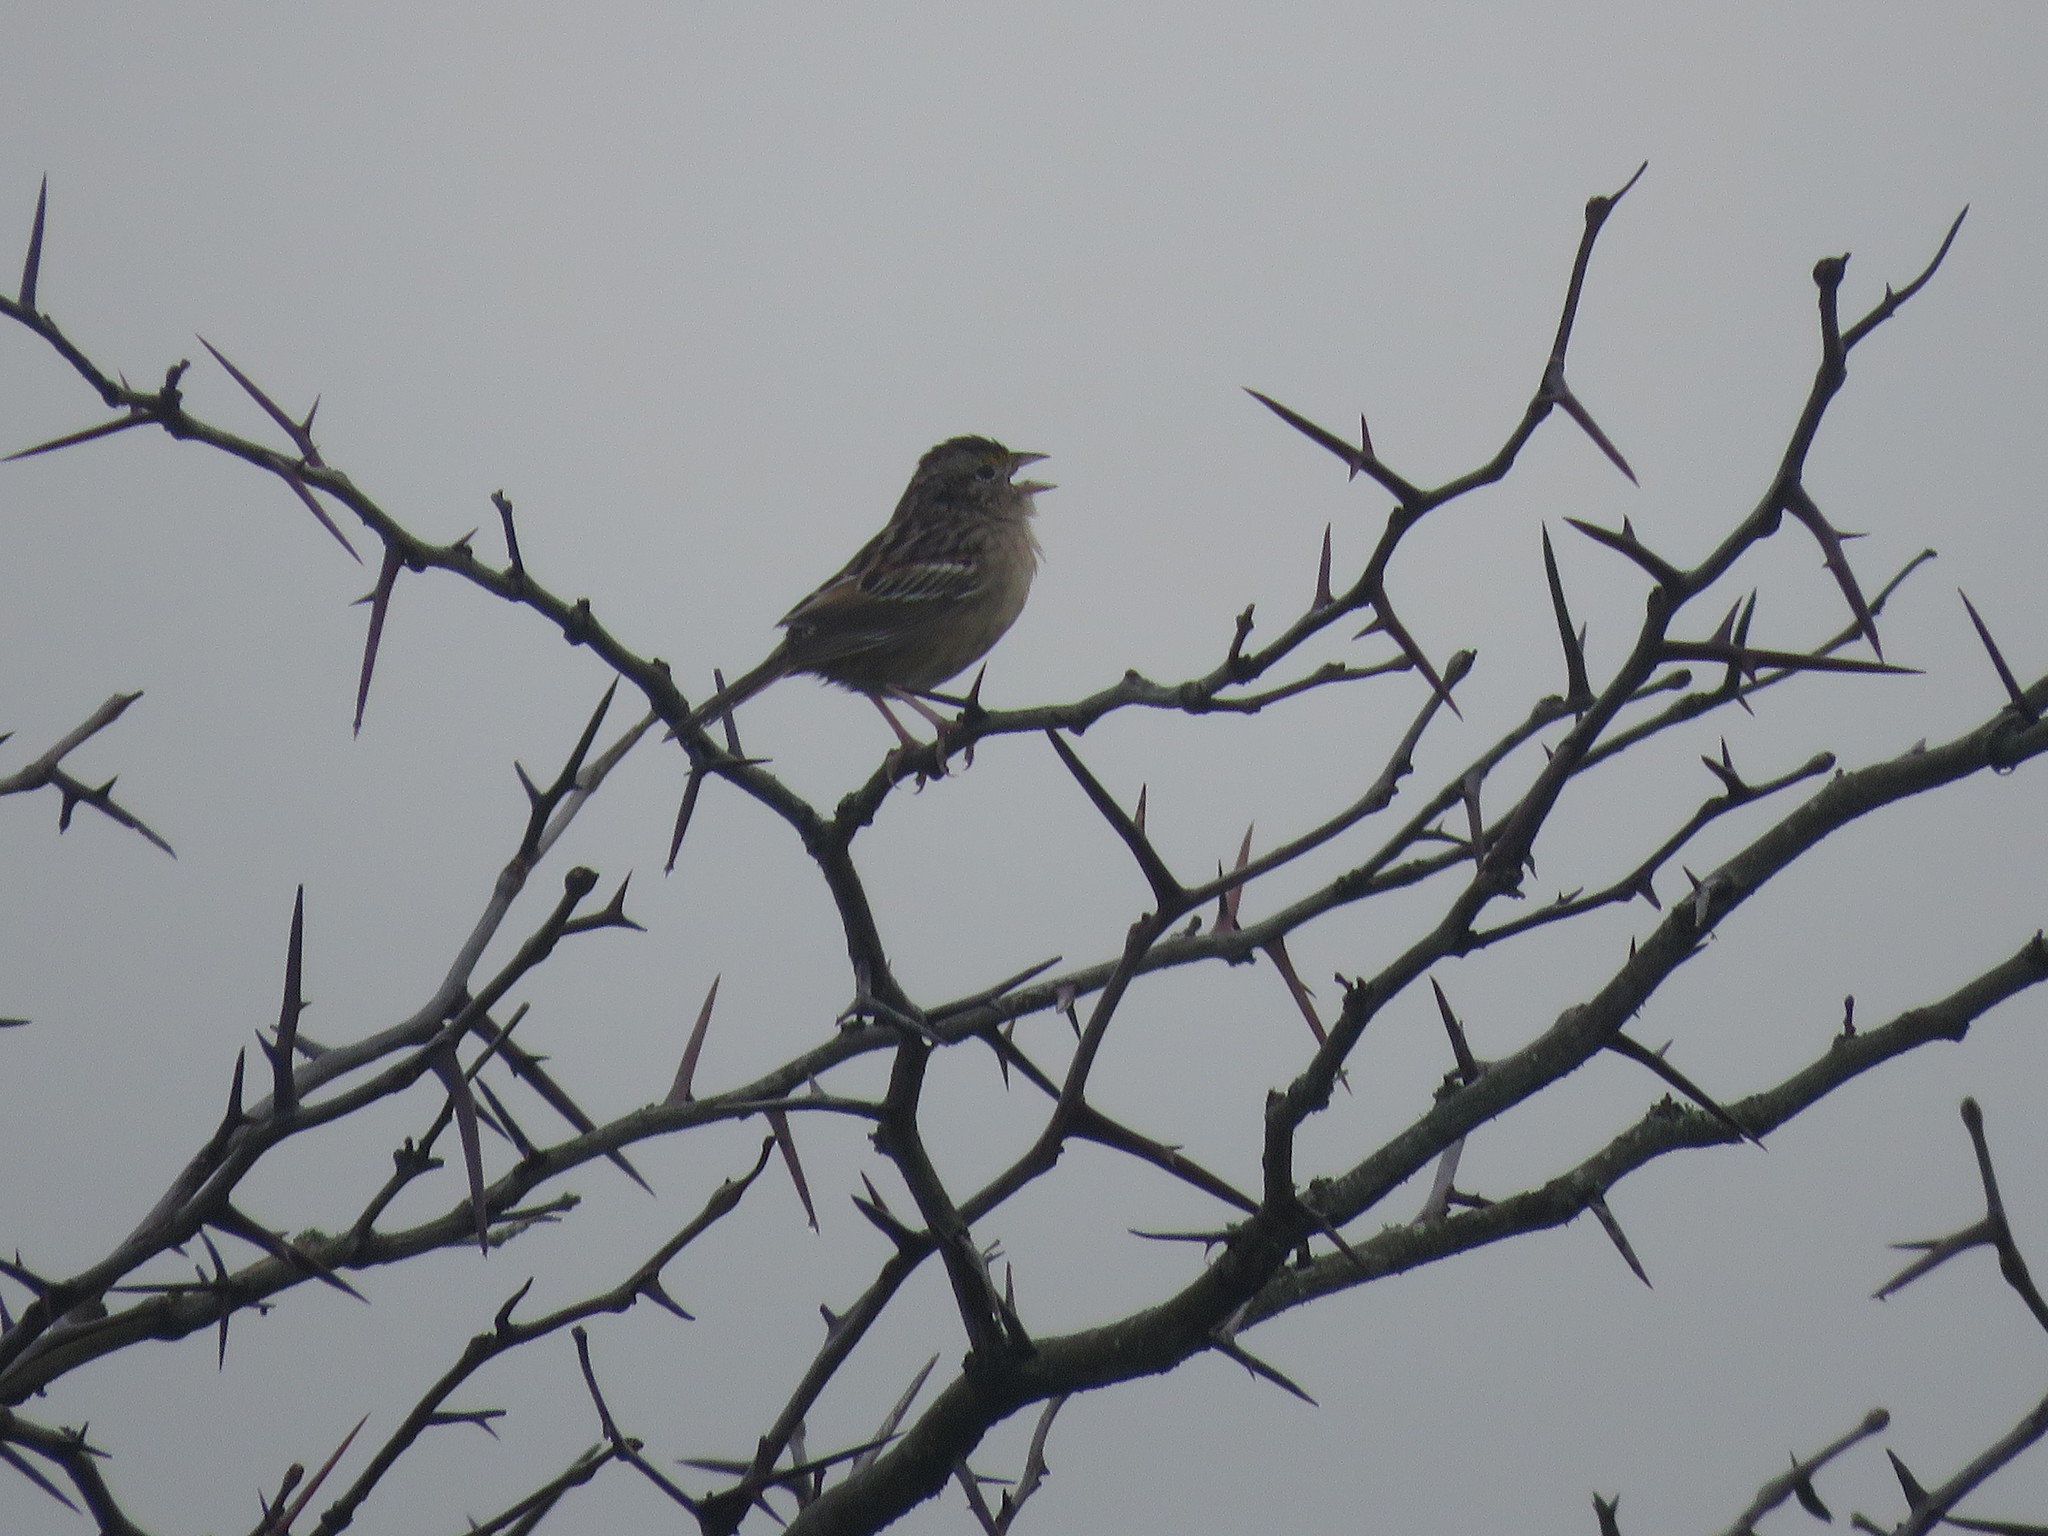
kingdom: Animalia
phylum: Chordata
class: Aves
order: Passeriformes
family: Passerellidae
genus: Ammodramus
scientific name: Ammodramus humeralis
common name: Grassland sparrow
